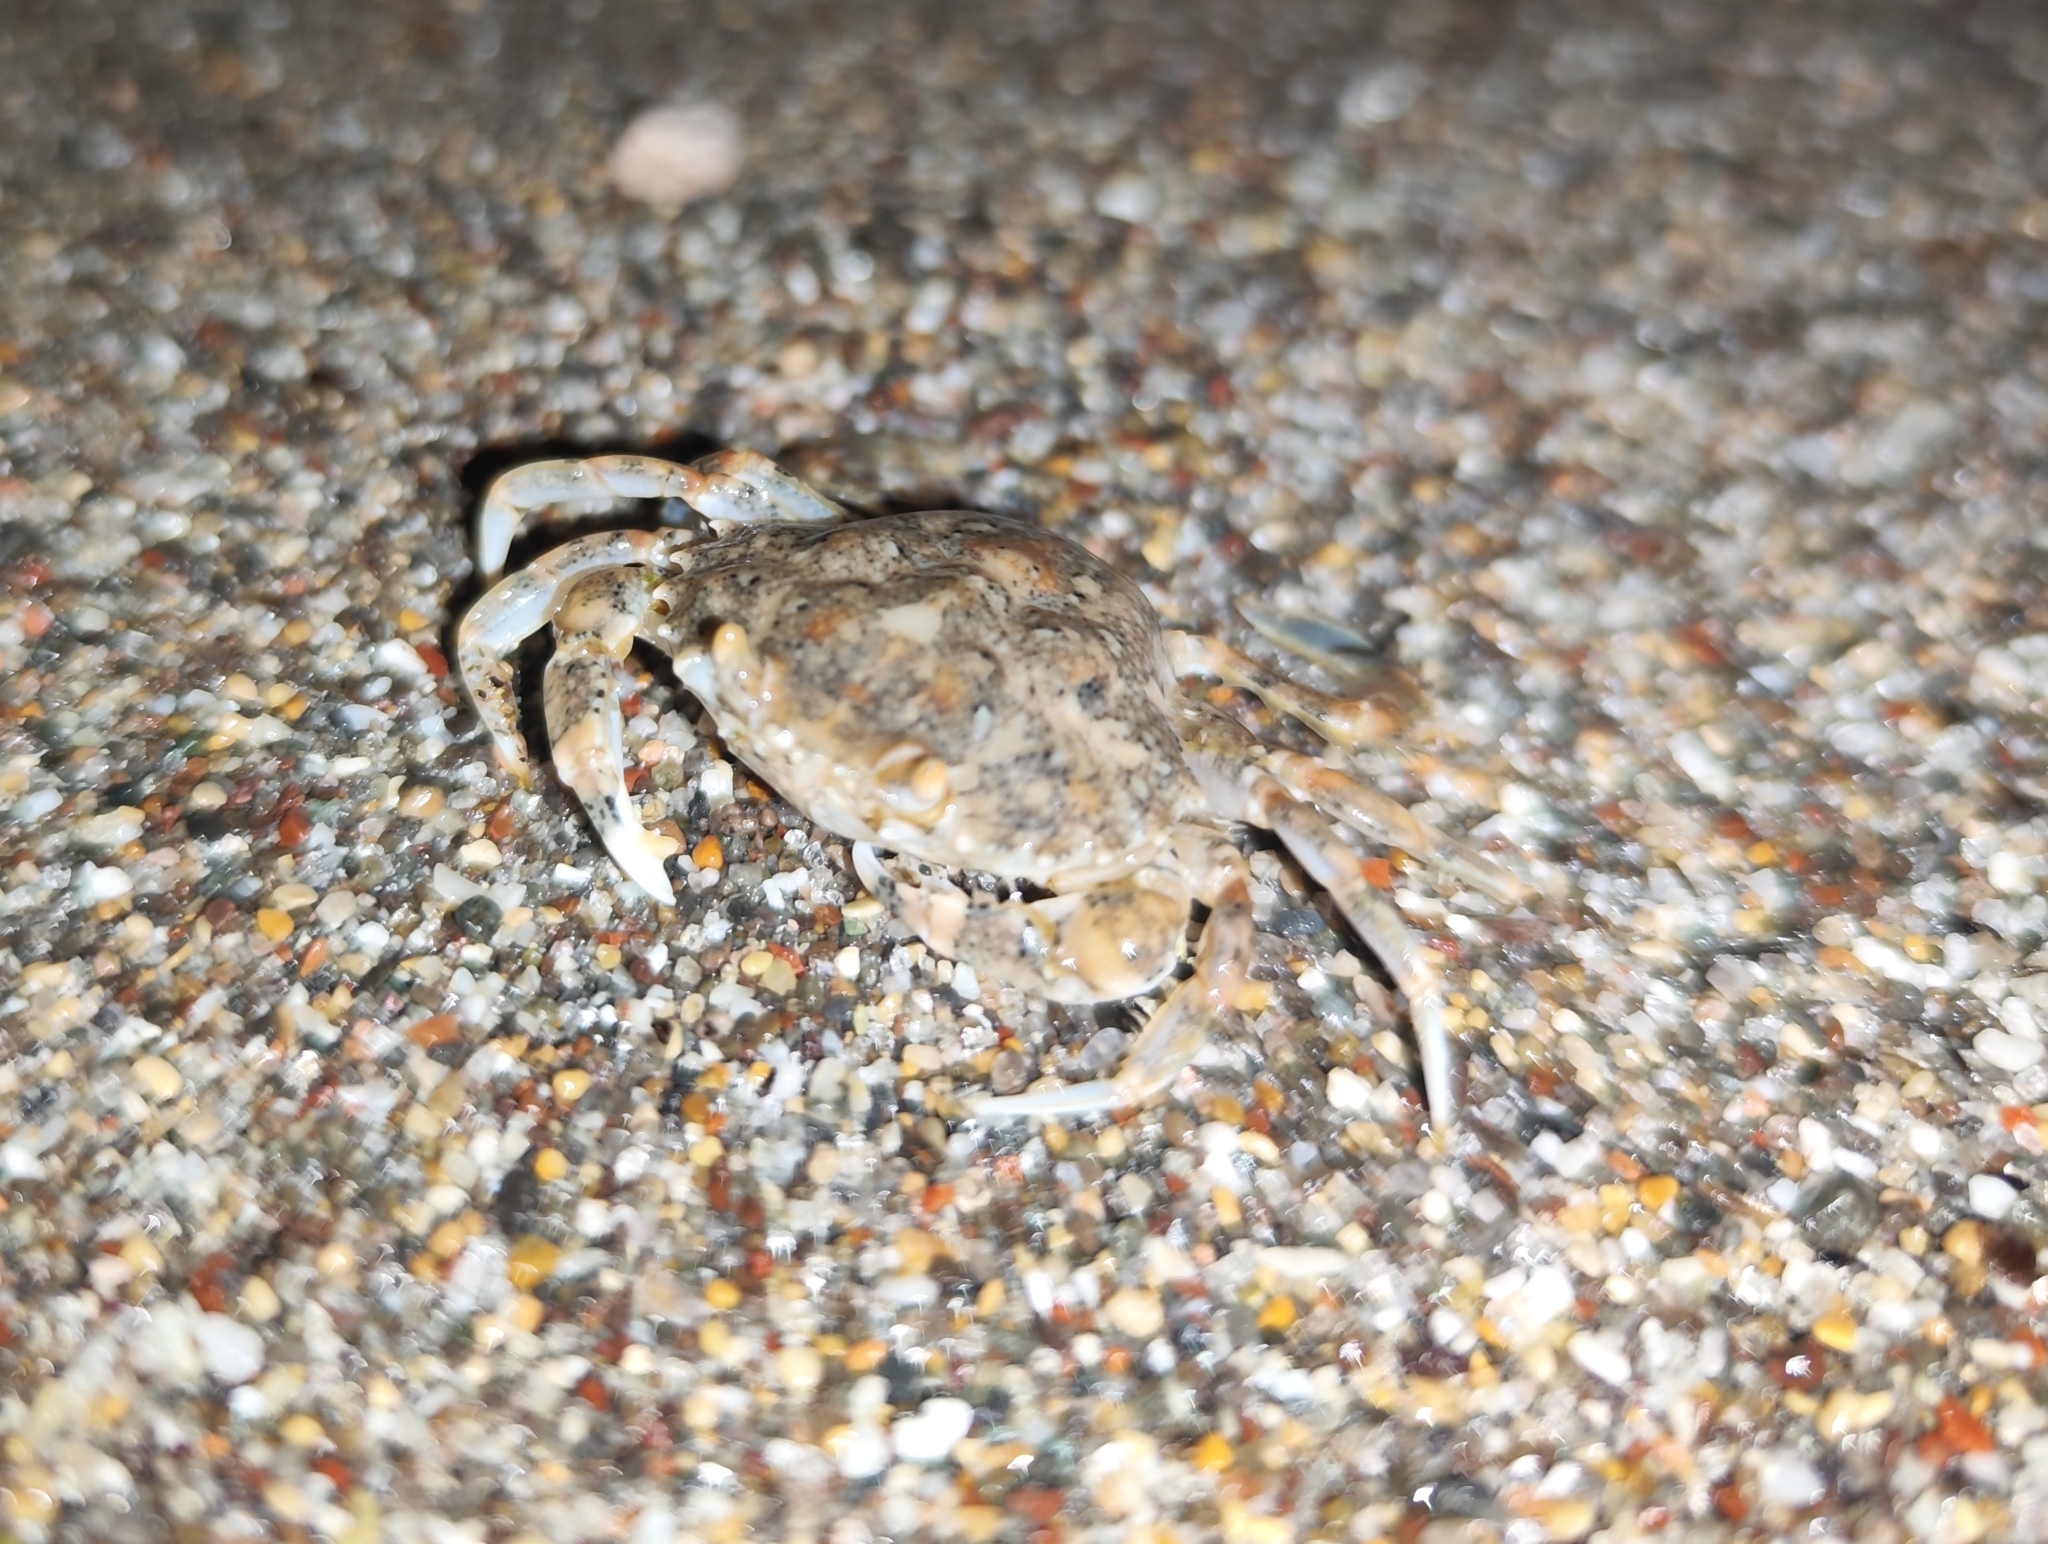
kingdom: Animalia
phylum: Arthropoda
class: Malacostraca
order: Decapoda
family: Carcinidae
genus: Portumnus
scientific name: Portumnus latipes
